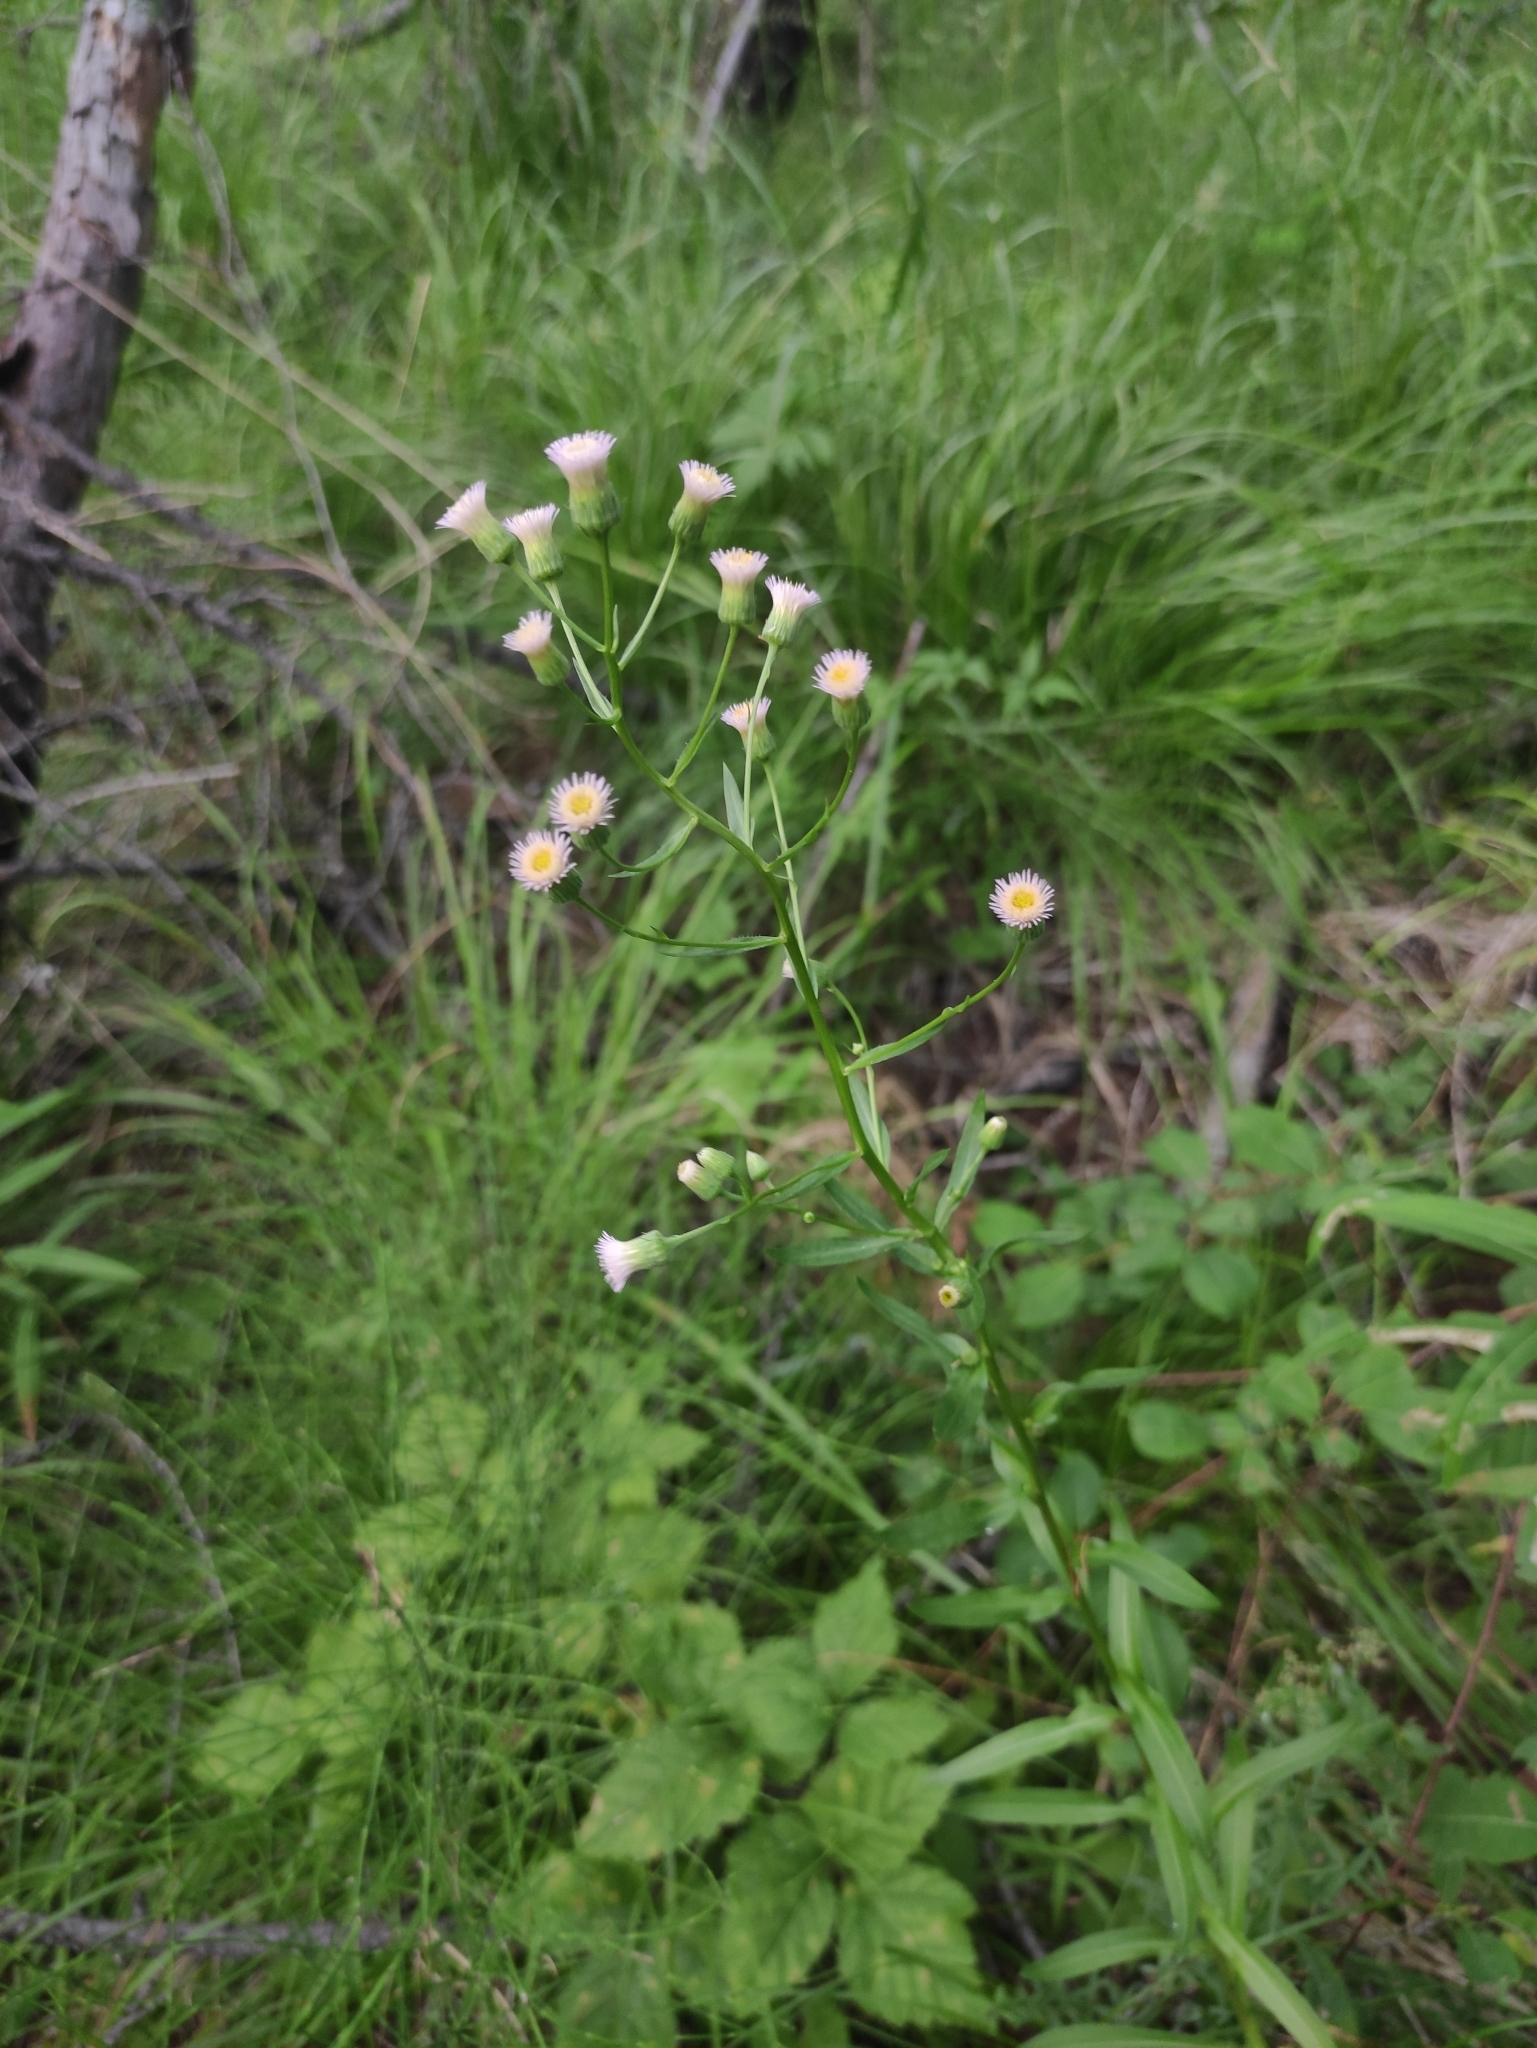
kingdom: Plantae
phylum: Tracheophyta
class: Magnoliopsida
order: Asterales
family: Asteraceae
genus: Erigeron
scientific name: Erigeron acris
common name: Blue fleabane
